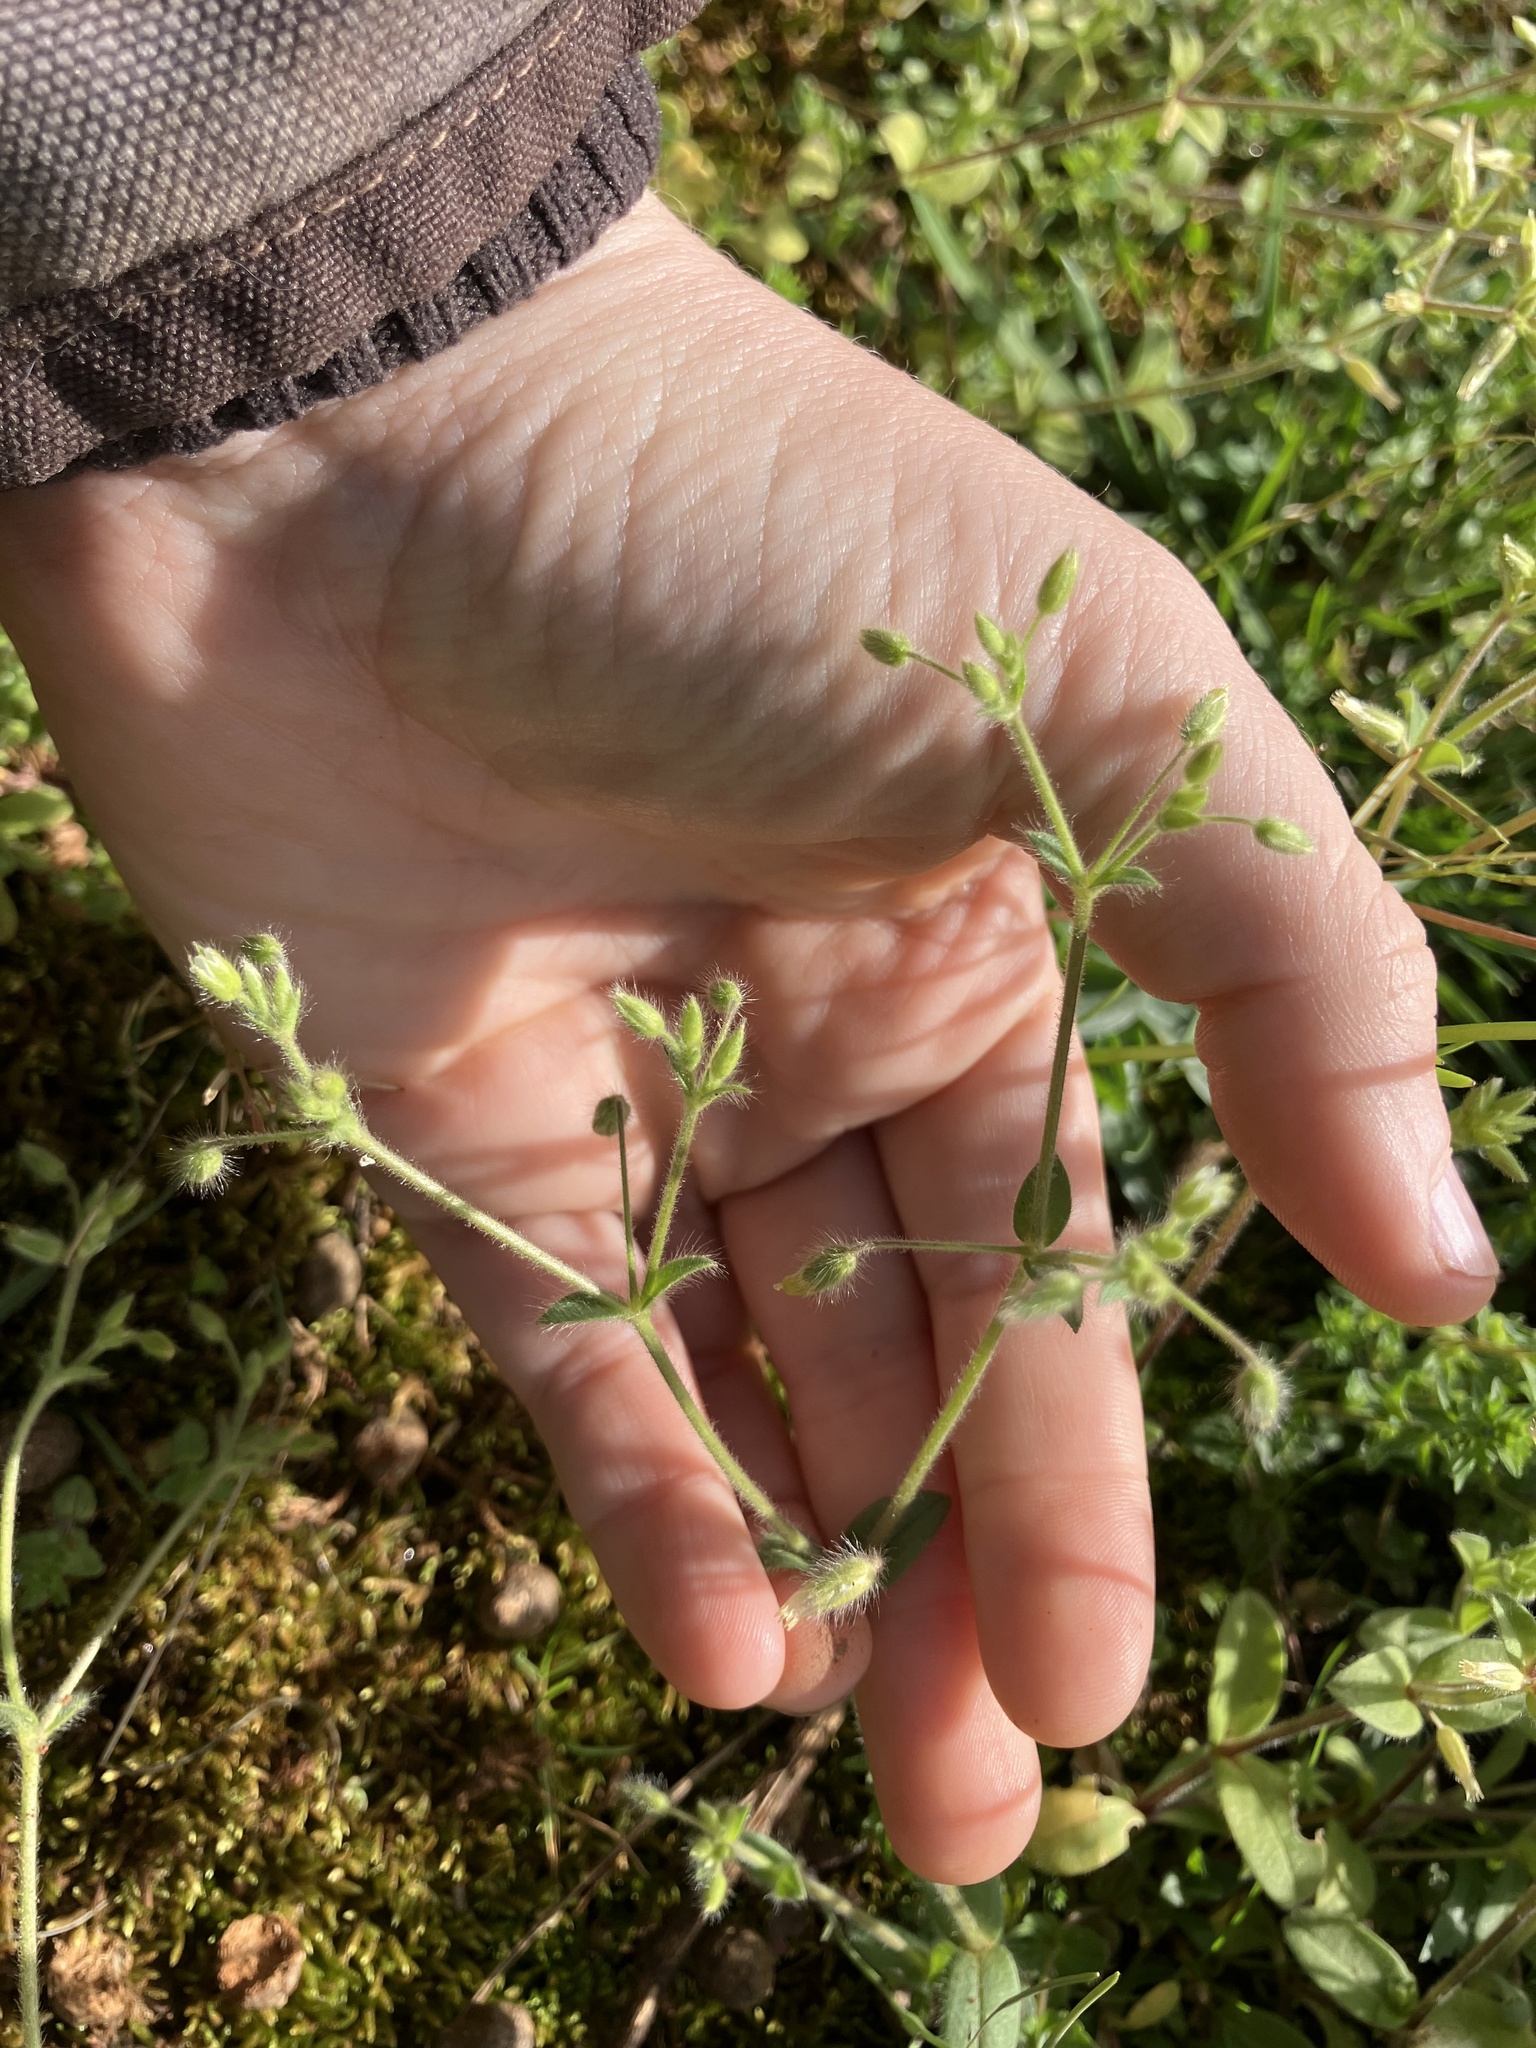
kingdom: Plantae
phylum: Tracheophyta
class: Magnoliopsida
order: Caryophyllales
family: Caryophyllaceae
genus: Cerastium
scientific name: Cerastium brachypetalum
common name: Grey mouse-ear
